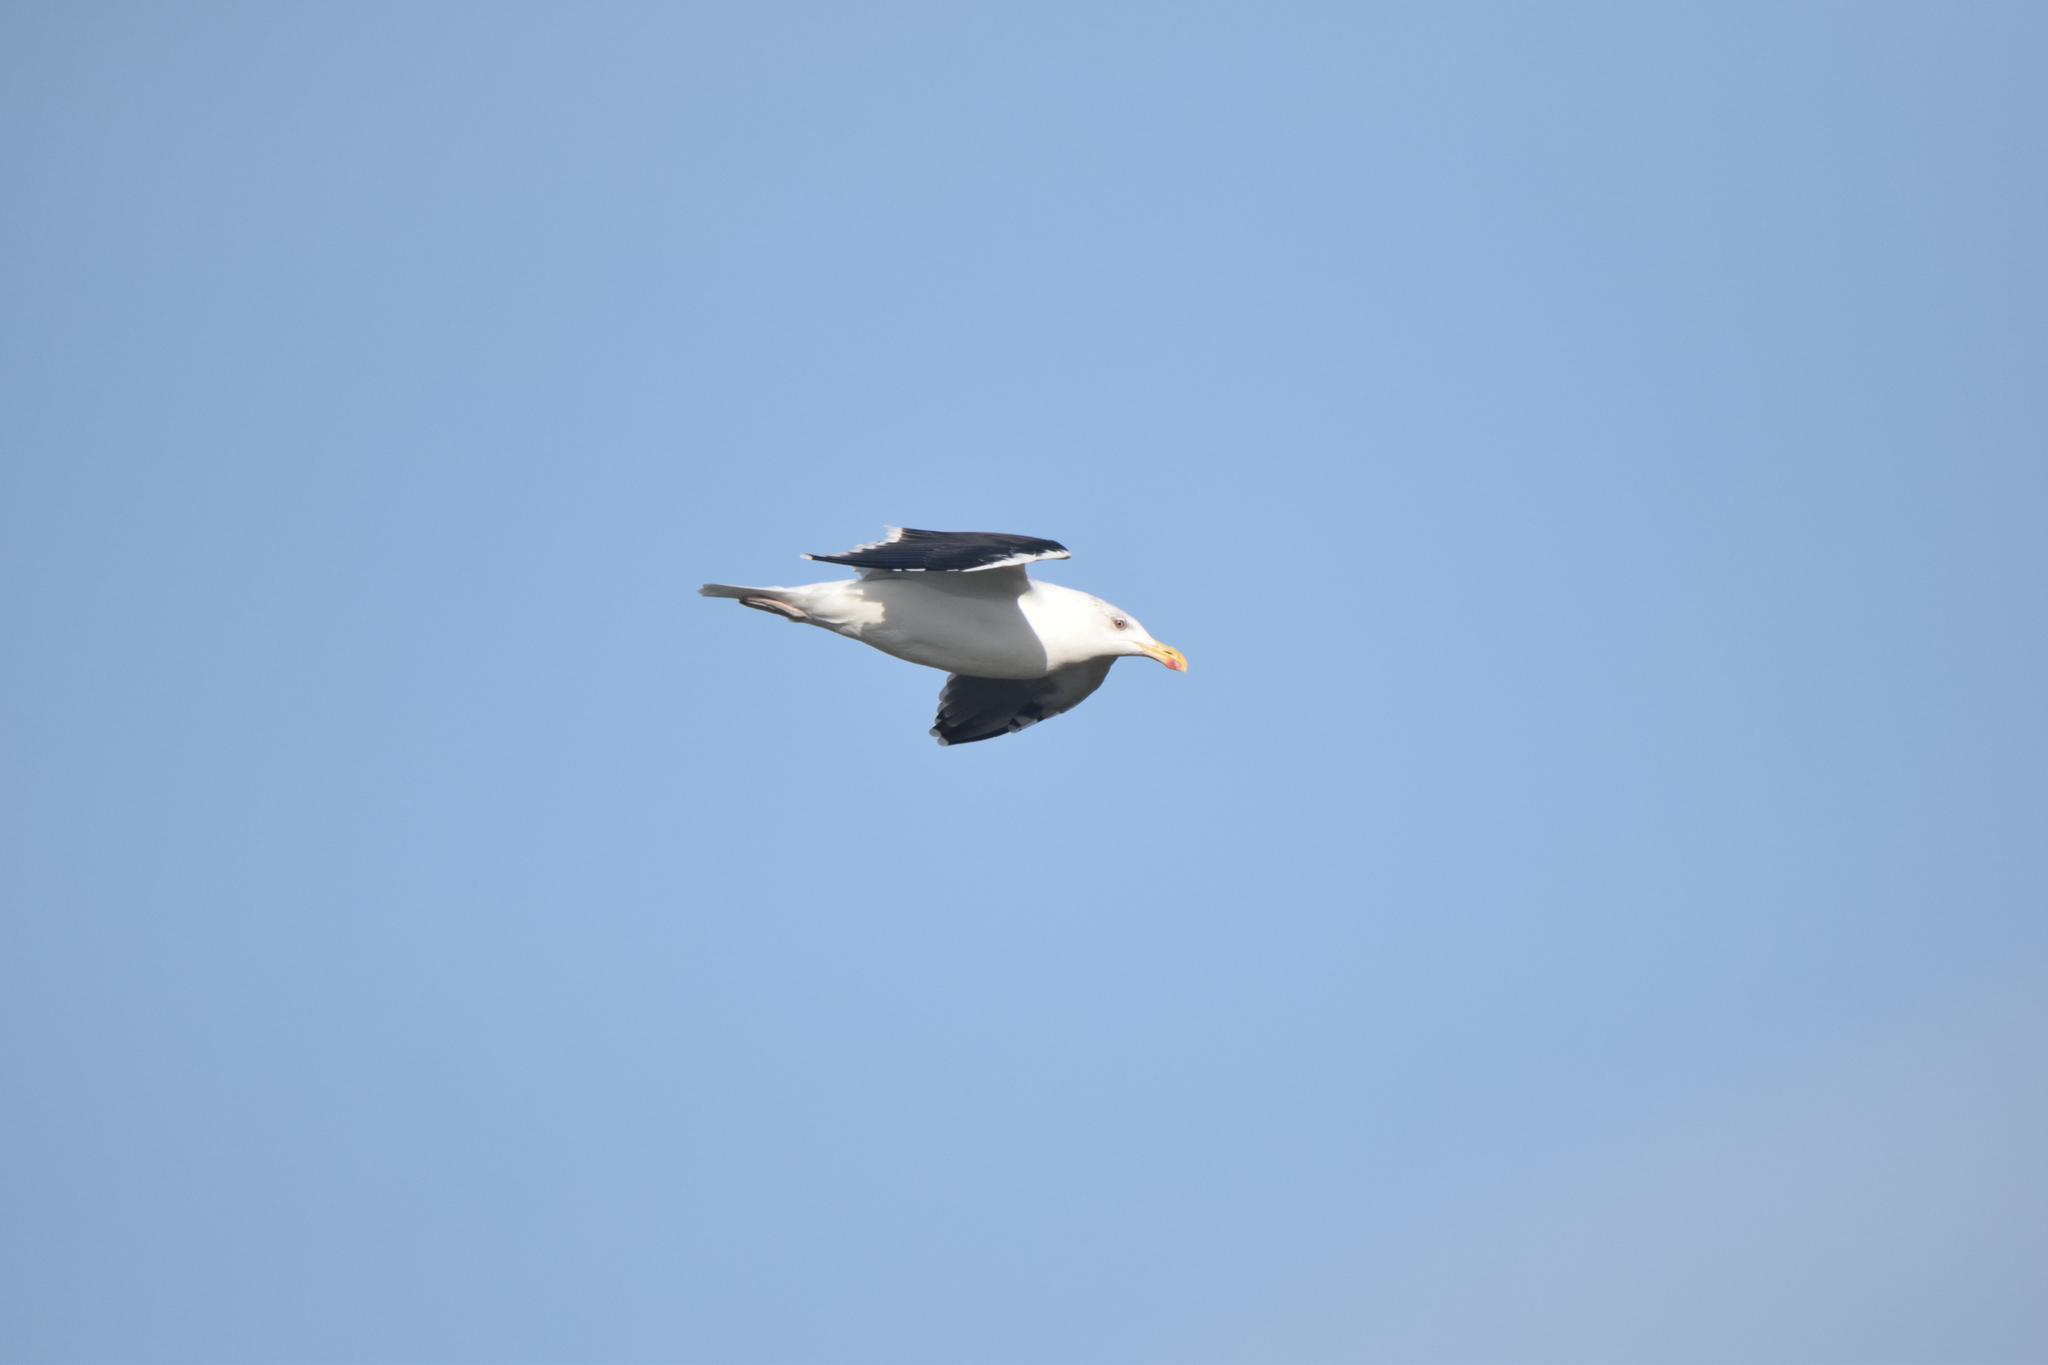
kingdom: Animalia
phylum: Chordata
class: Aves
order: Charadriiformes
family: Laridae
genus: Larus
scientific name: Larus marinus
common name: Great black-backed gull
